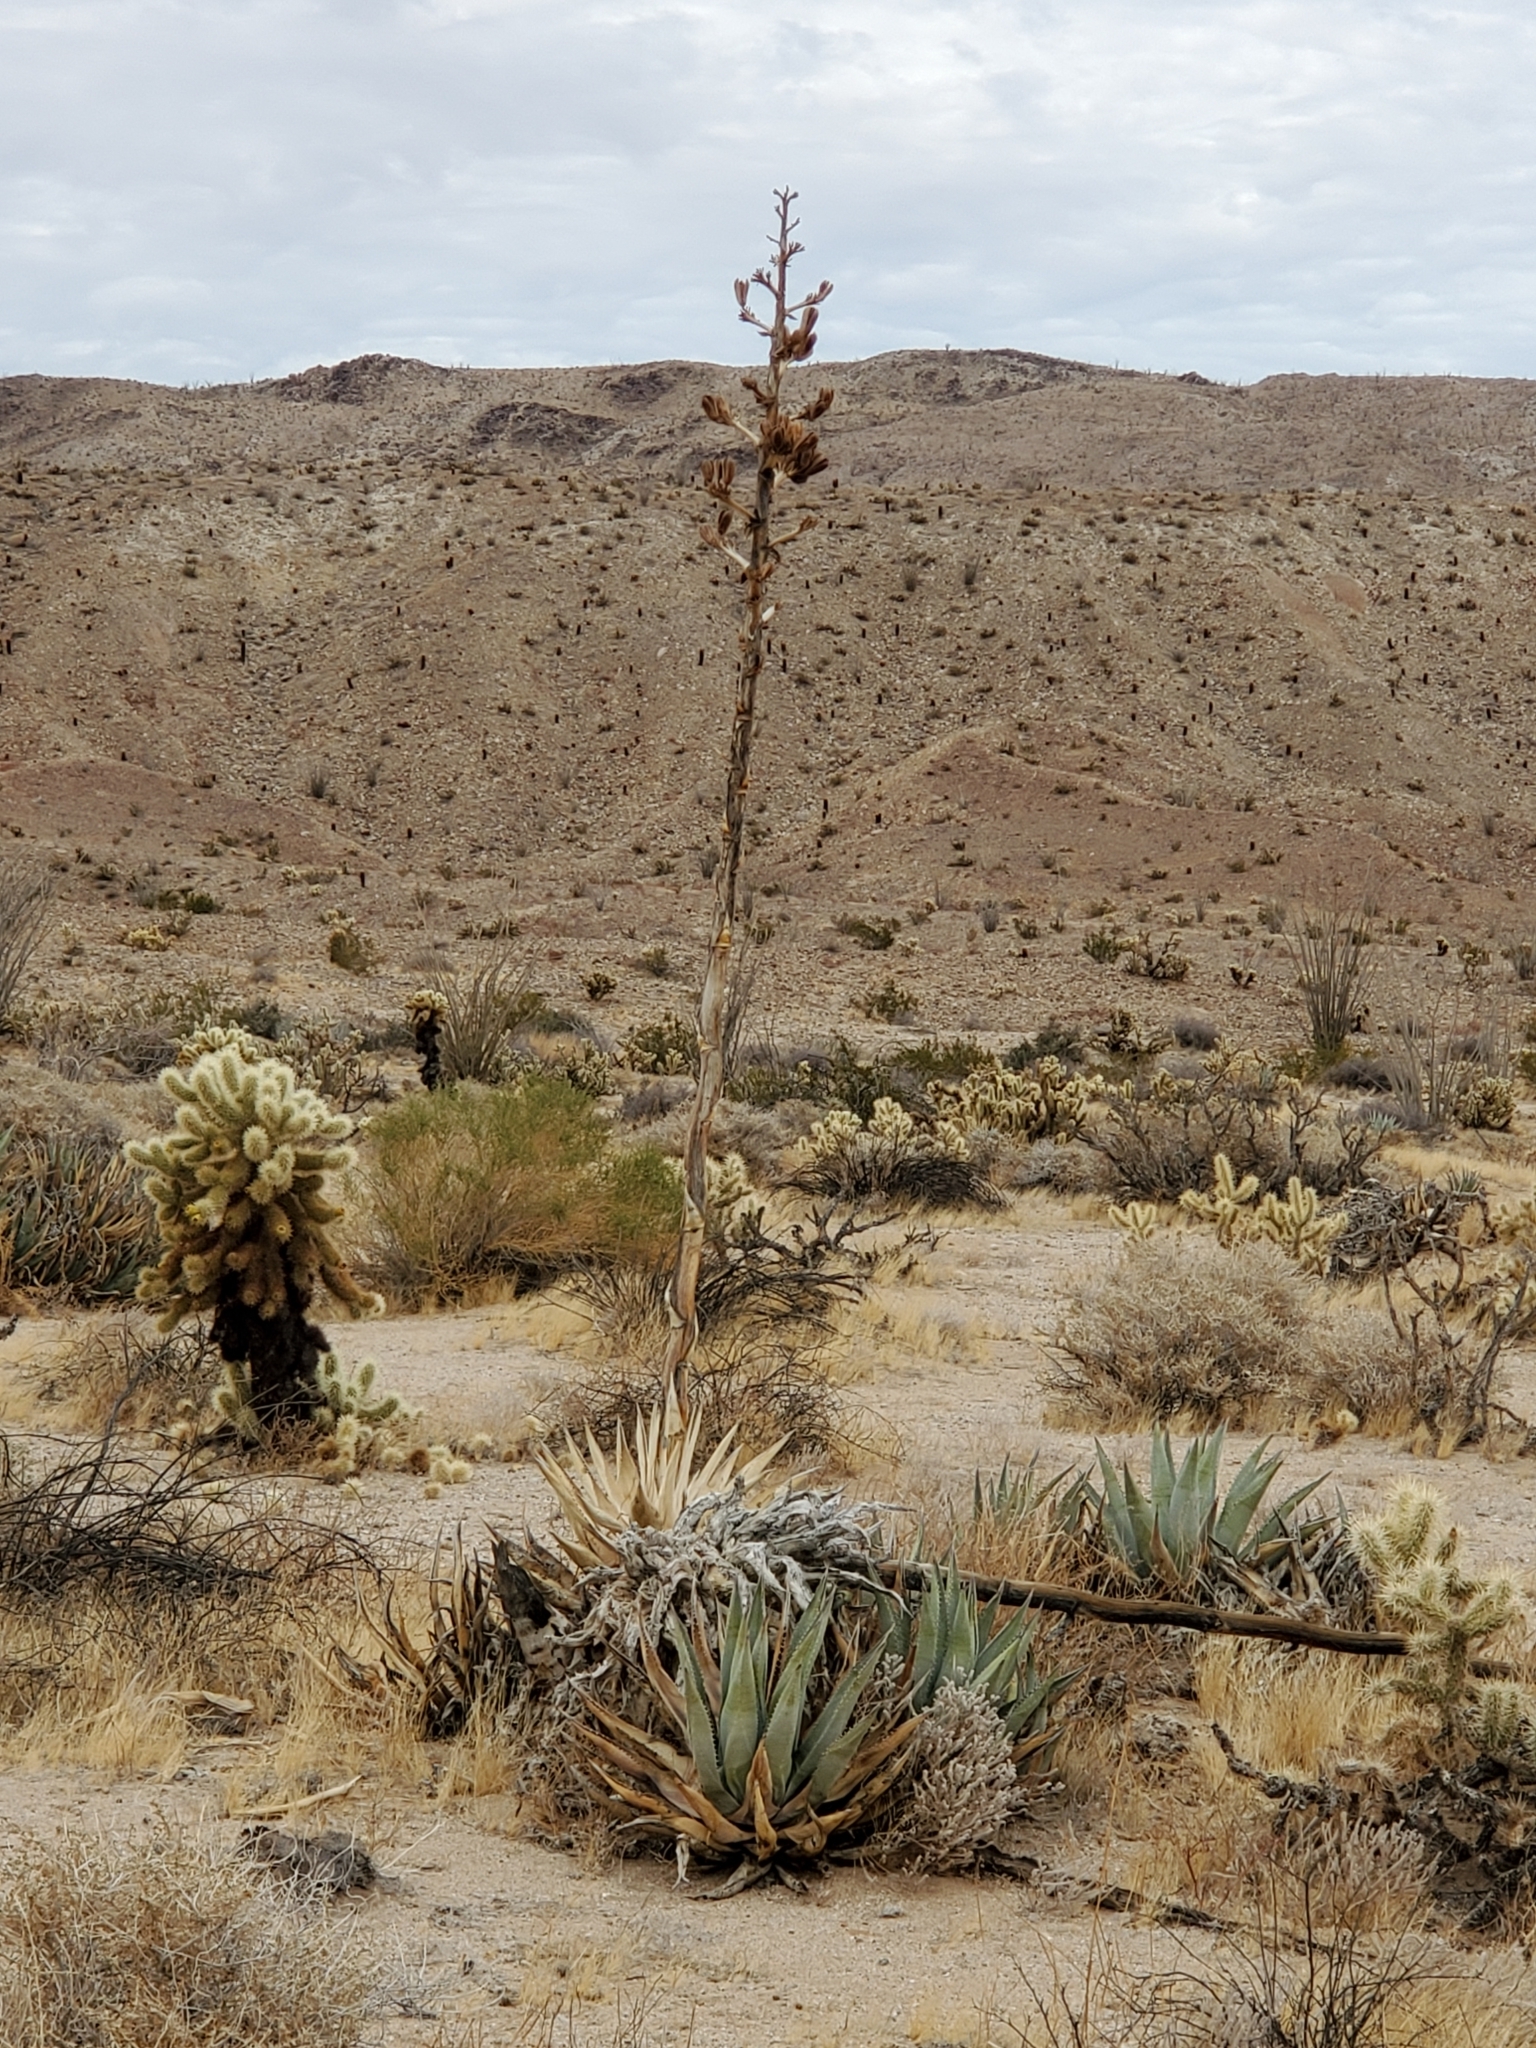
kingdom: Plantae
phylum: Tracheophyta
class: Liliopsida
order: Asparagales
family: Asparagaceae
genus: Agave
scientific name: Agave deserti
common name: Desert agave
